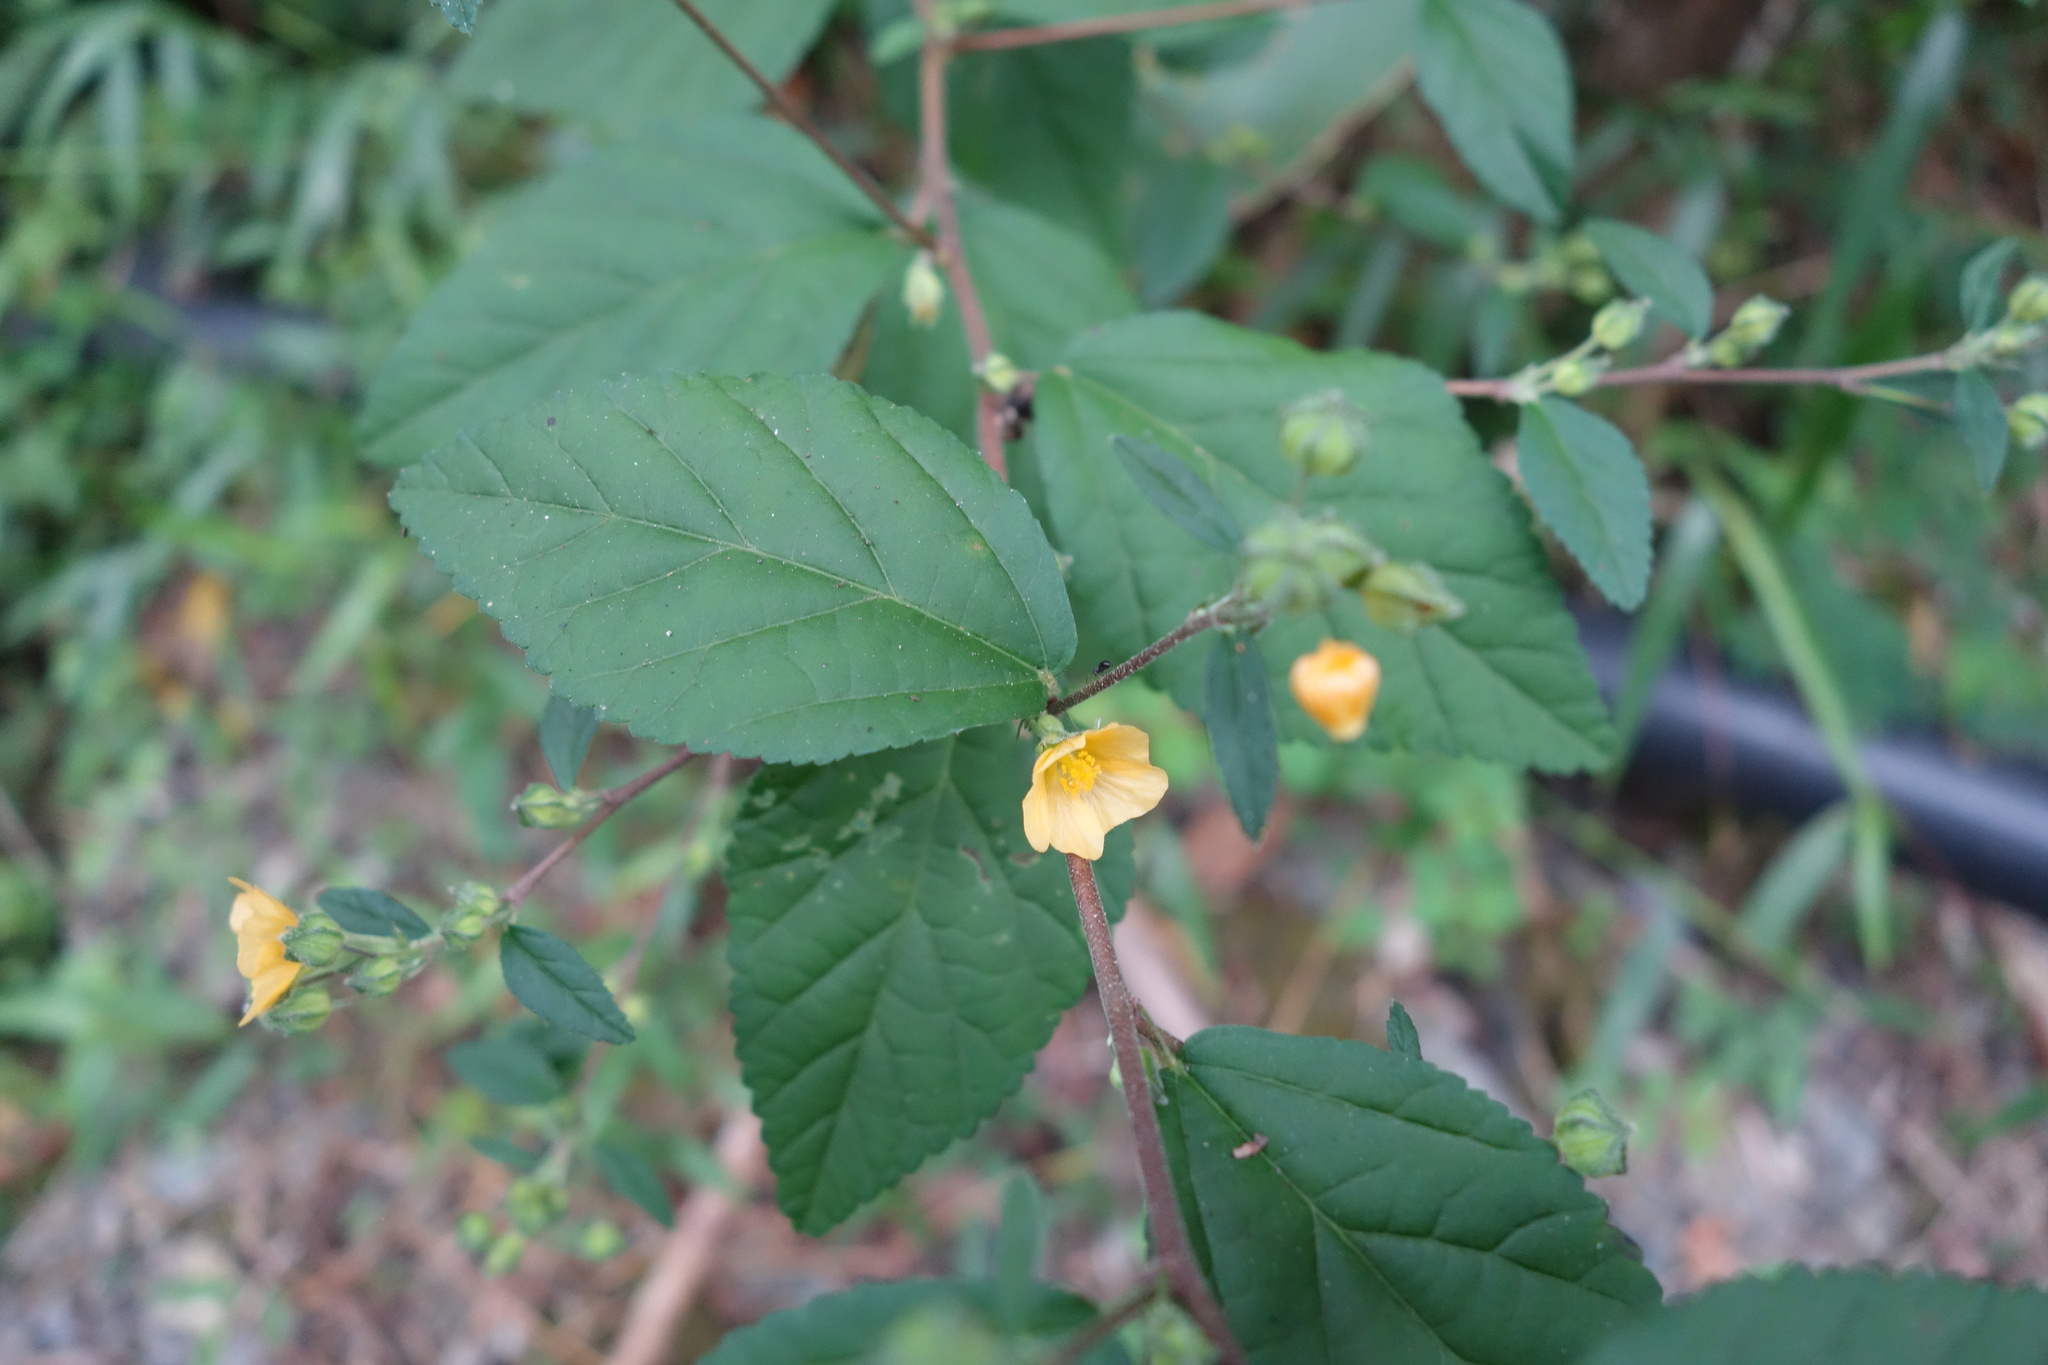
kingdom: Plantae
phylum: Tracheophyta
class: Magnoliopsida
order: Malvales
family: Malvaceae
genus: Sida
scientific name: Sida rhombifolia
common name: Queensland-hemp
